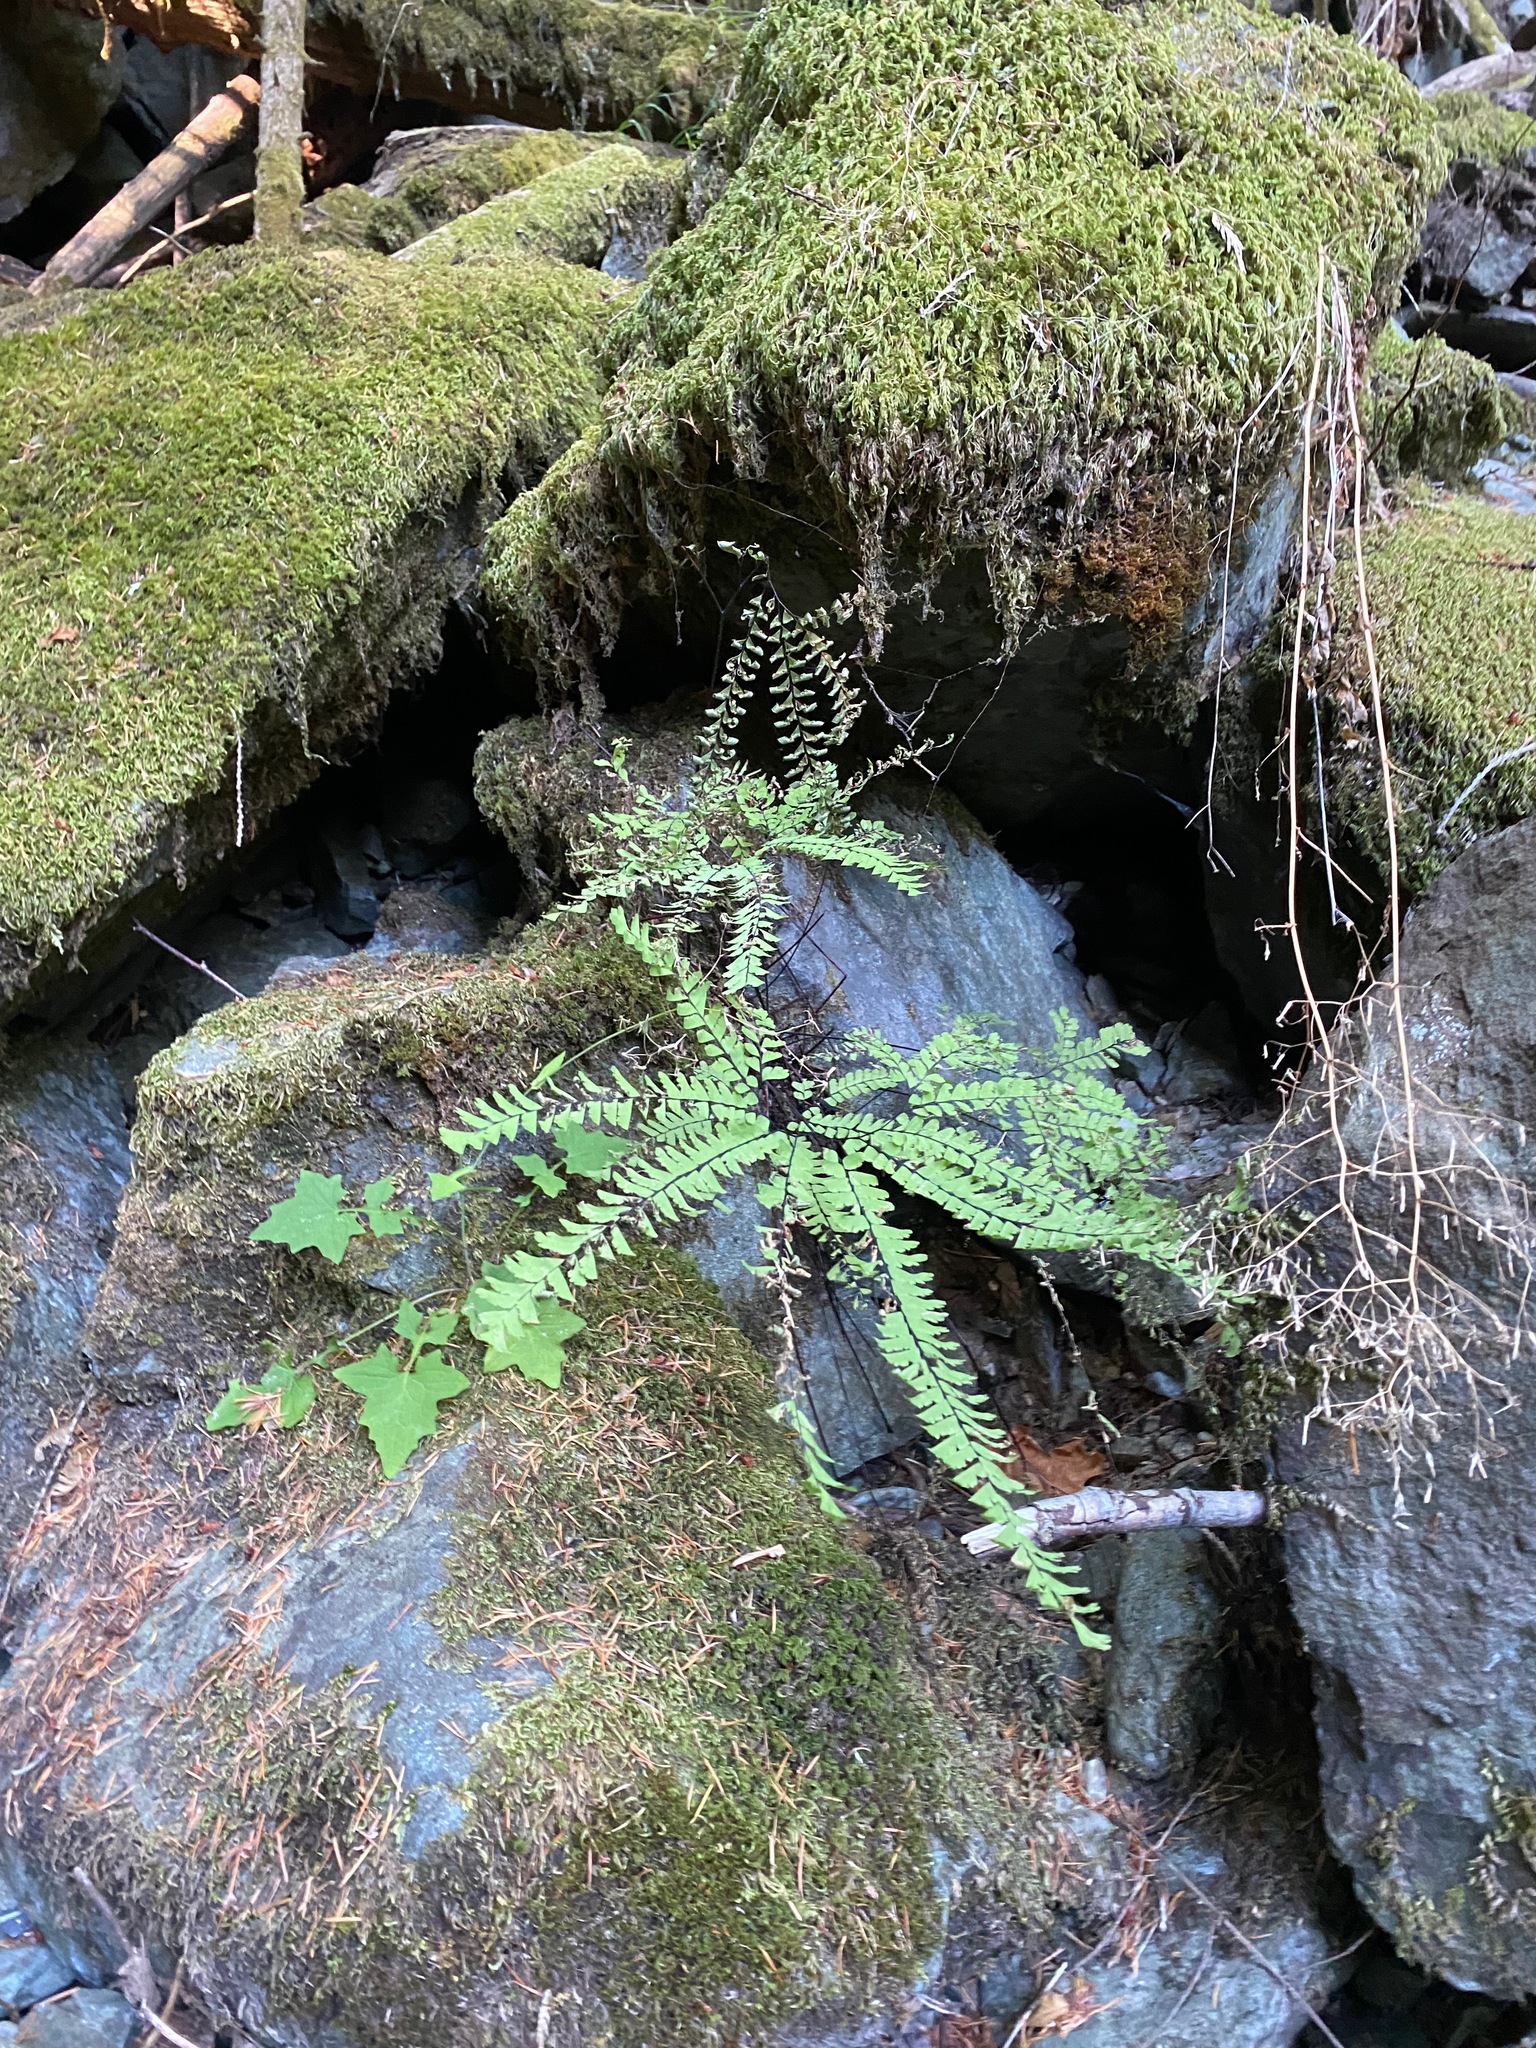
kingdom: Plantae
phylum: Tracheophyta
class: Polypodiopsida
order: Polypodiales
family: Pteridaceae
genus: Adiantum
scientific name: Adiantum aleuticum
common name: Aleutian maidenhair fern
